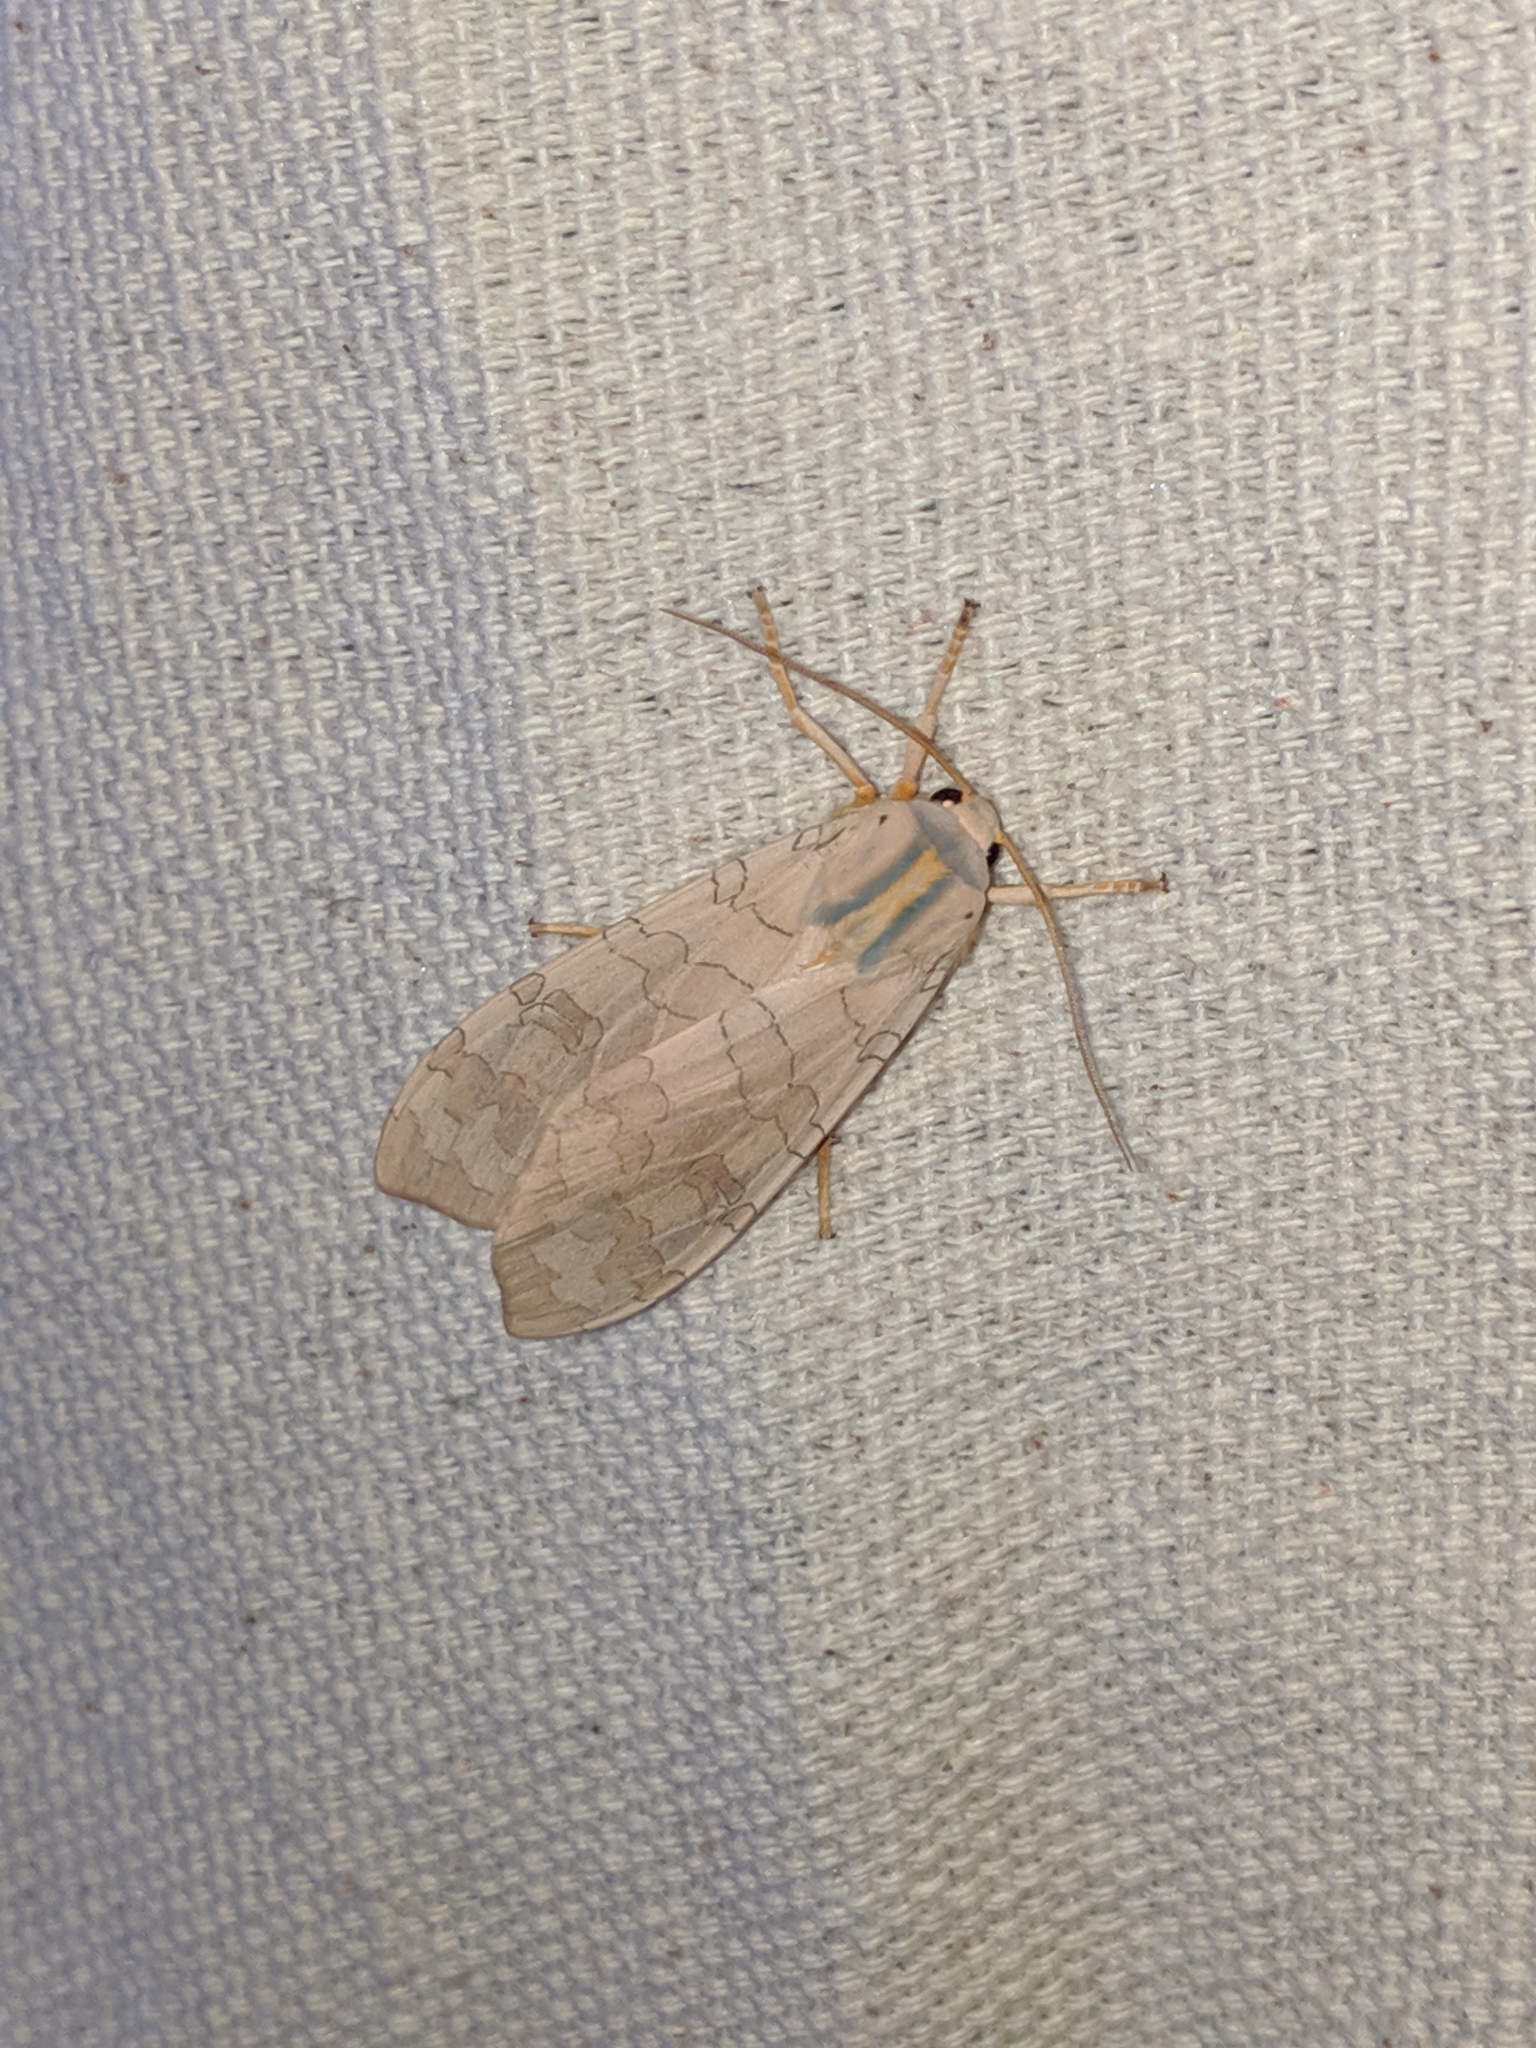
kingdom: Animalia
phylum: Arthropoda
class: Insecta
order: Lepidoptera
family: Erebidae
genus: Halysidota
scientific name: Halysidota
